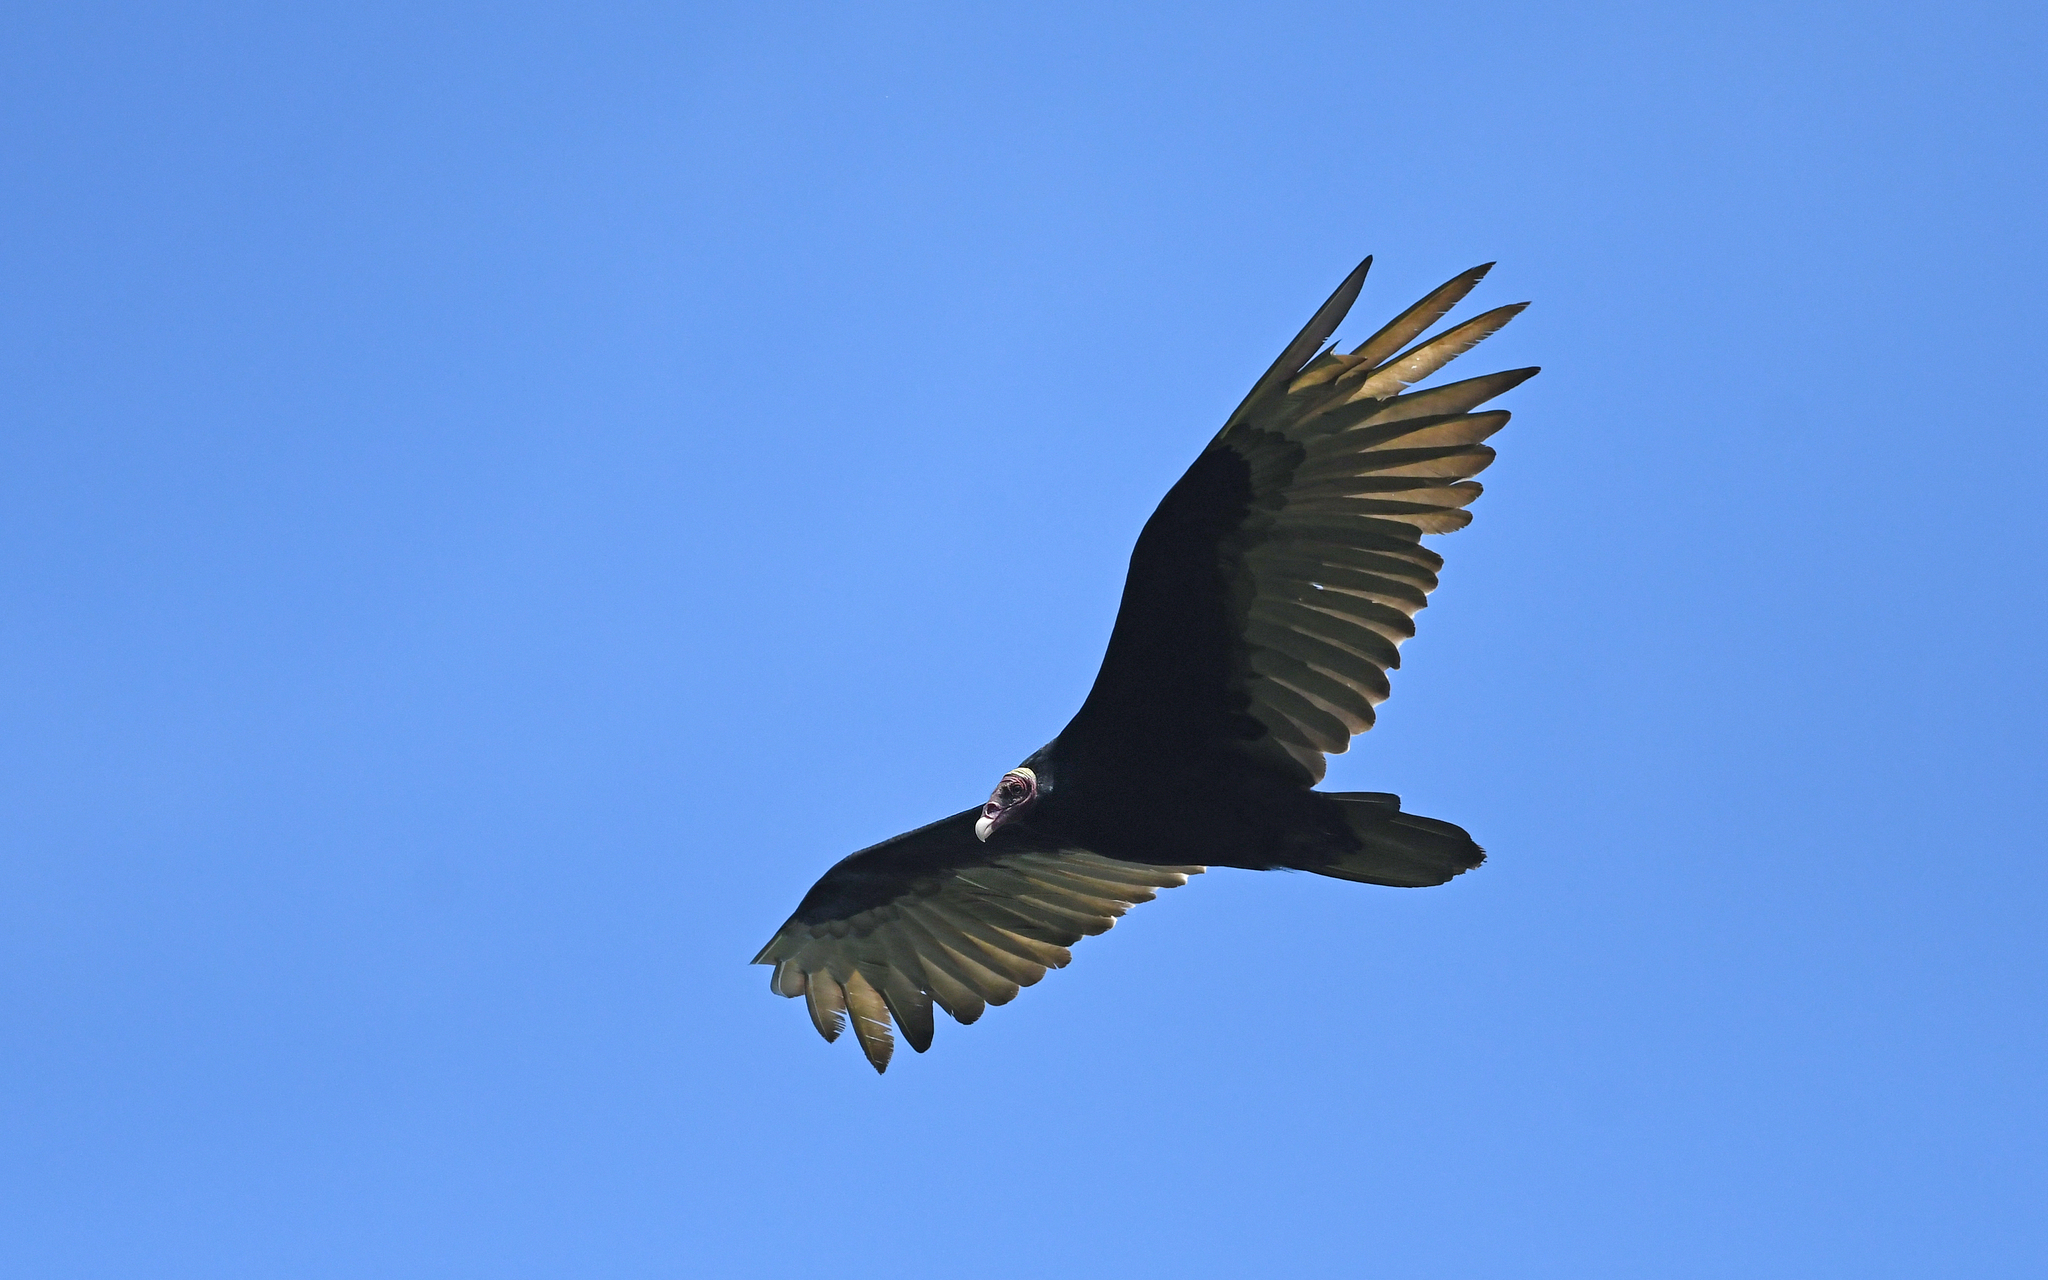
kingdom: Animalia
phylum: Chordata
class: Aves
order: Accipitriformes
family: Cathartidae
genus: Cathartes
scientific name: Cathartes aura
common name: Turkey vulture
